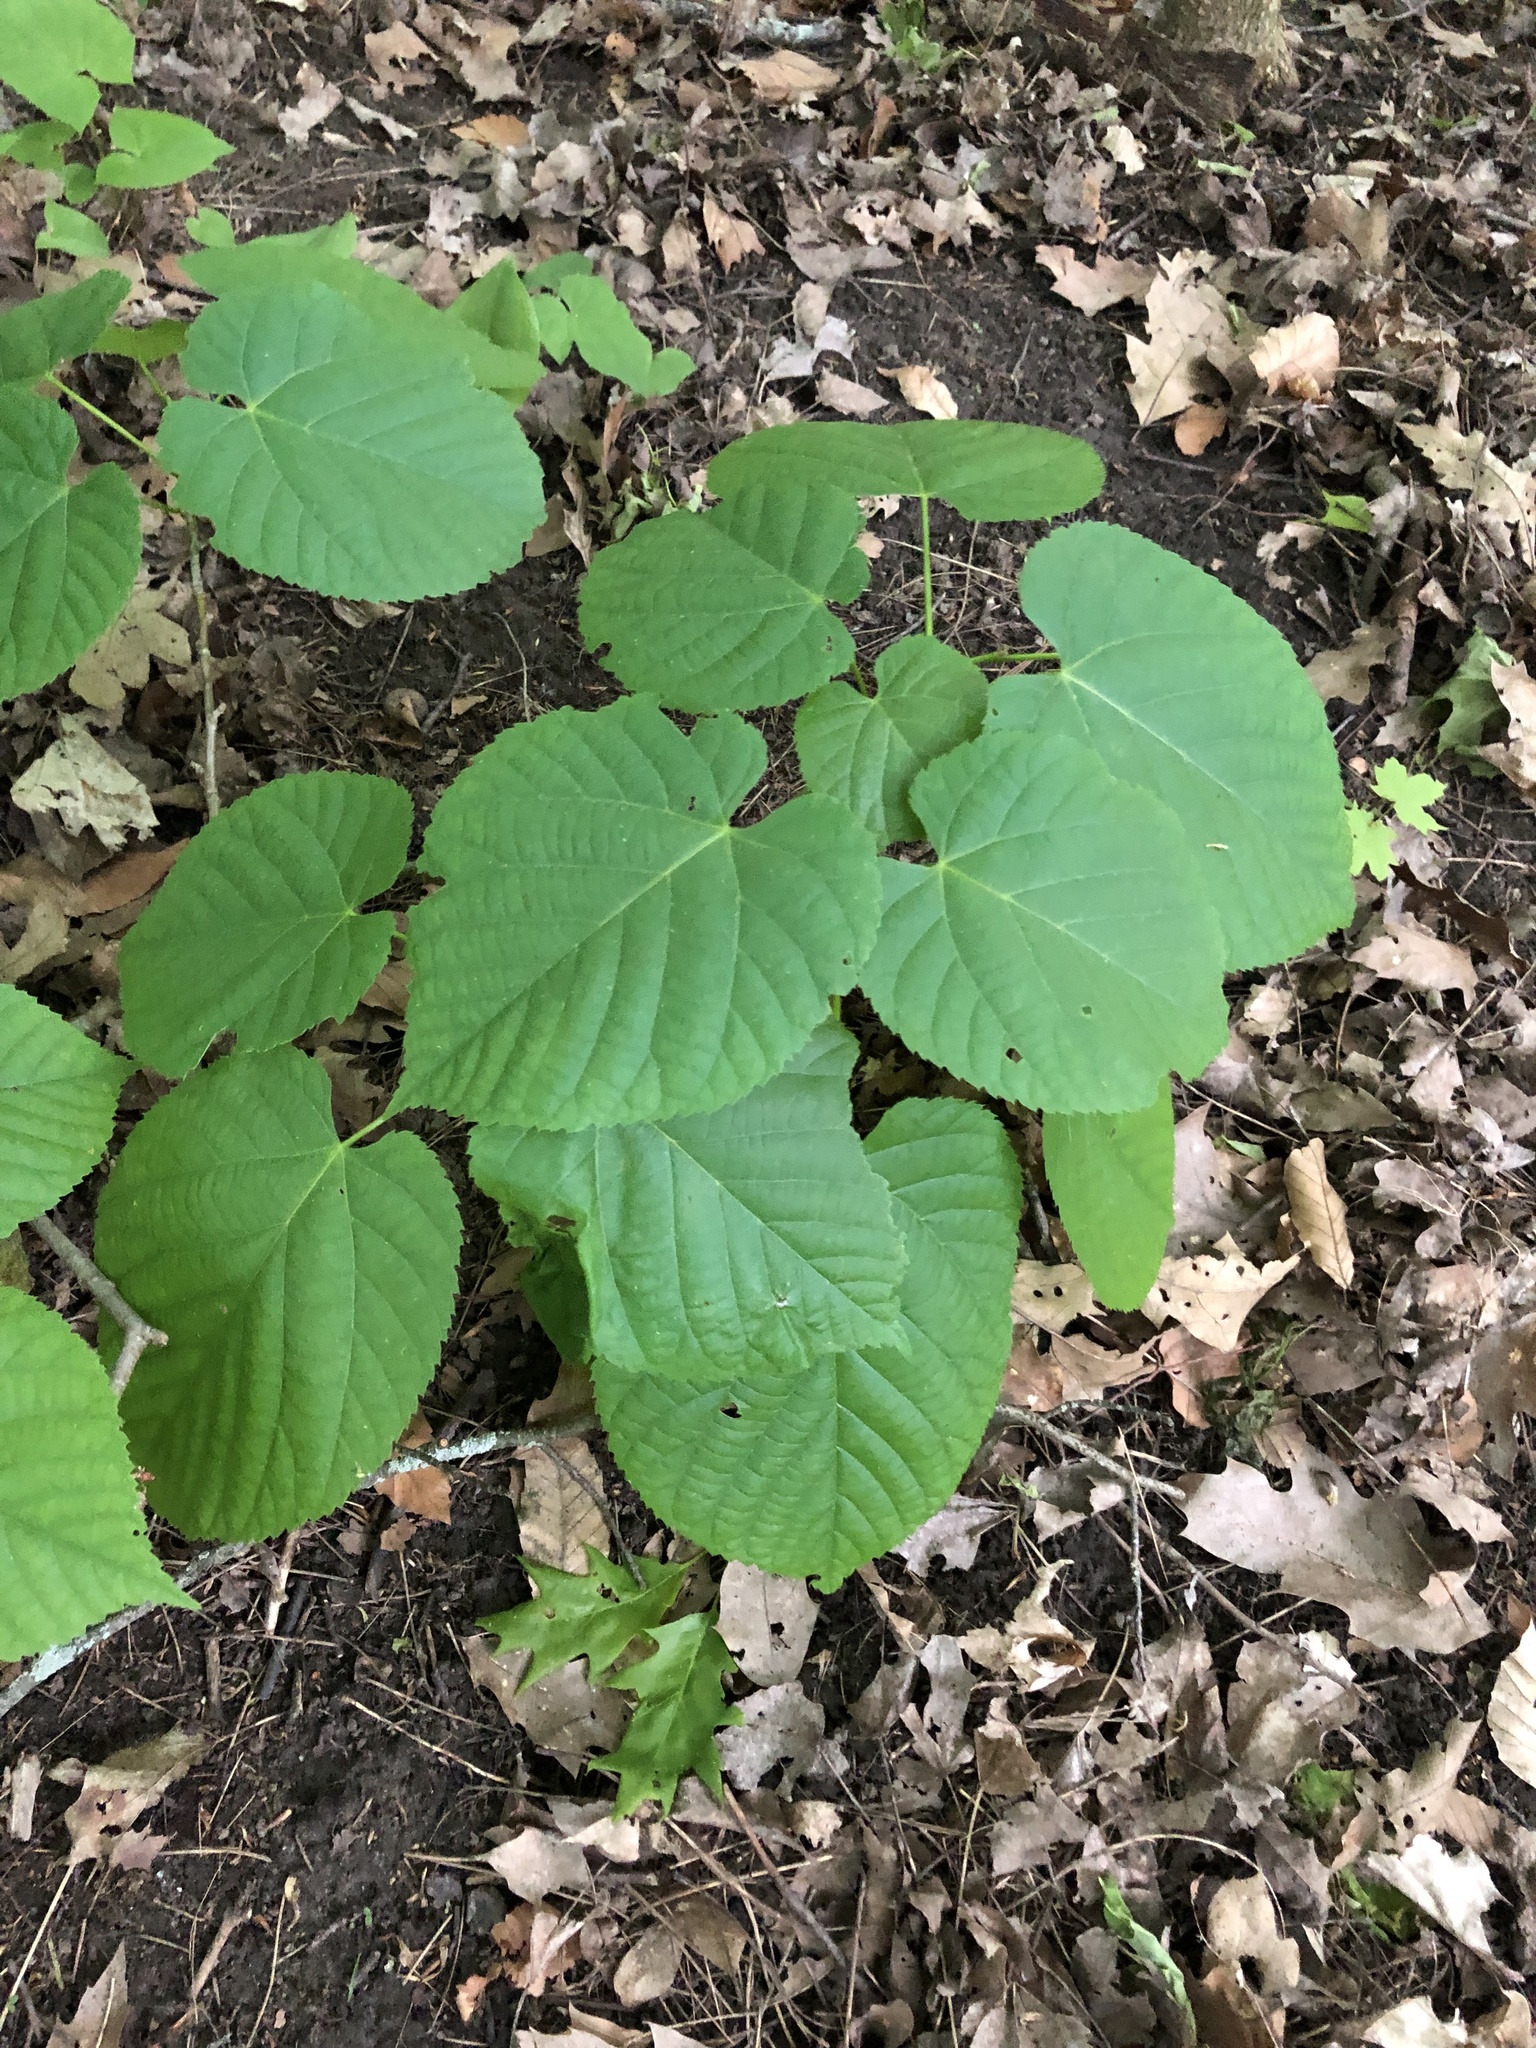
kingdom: Plantae
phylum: Tracheophyta
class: Magnoliopsida
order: Malvales
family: Malvaceae
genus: Tilia
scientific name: Tilia americana
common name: Basswood
